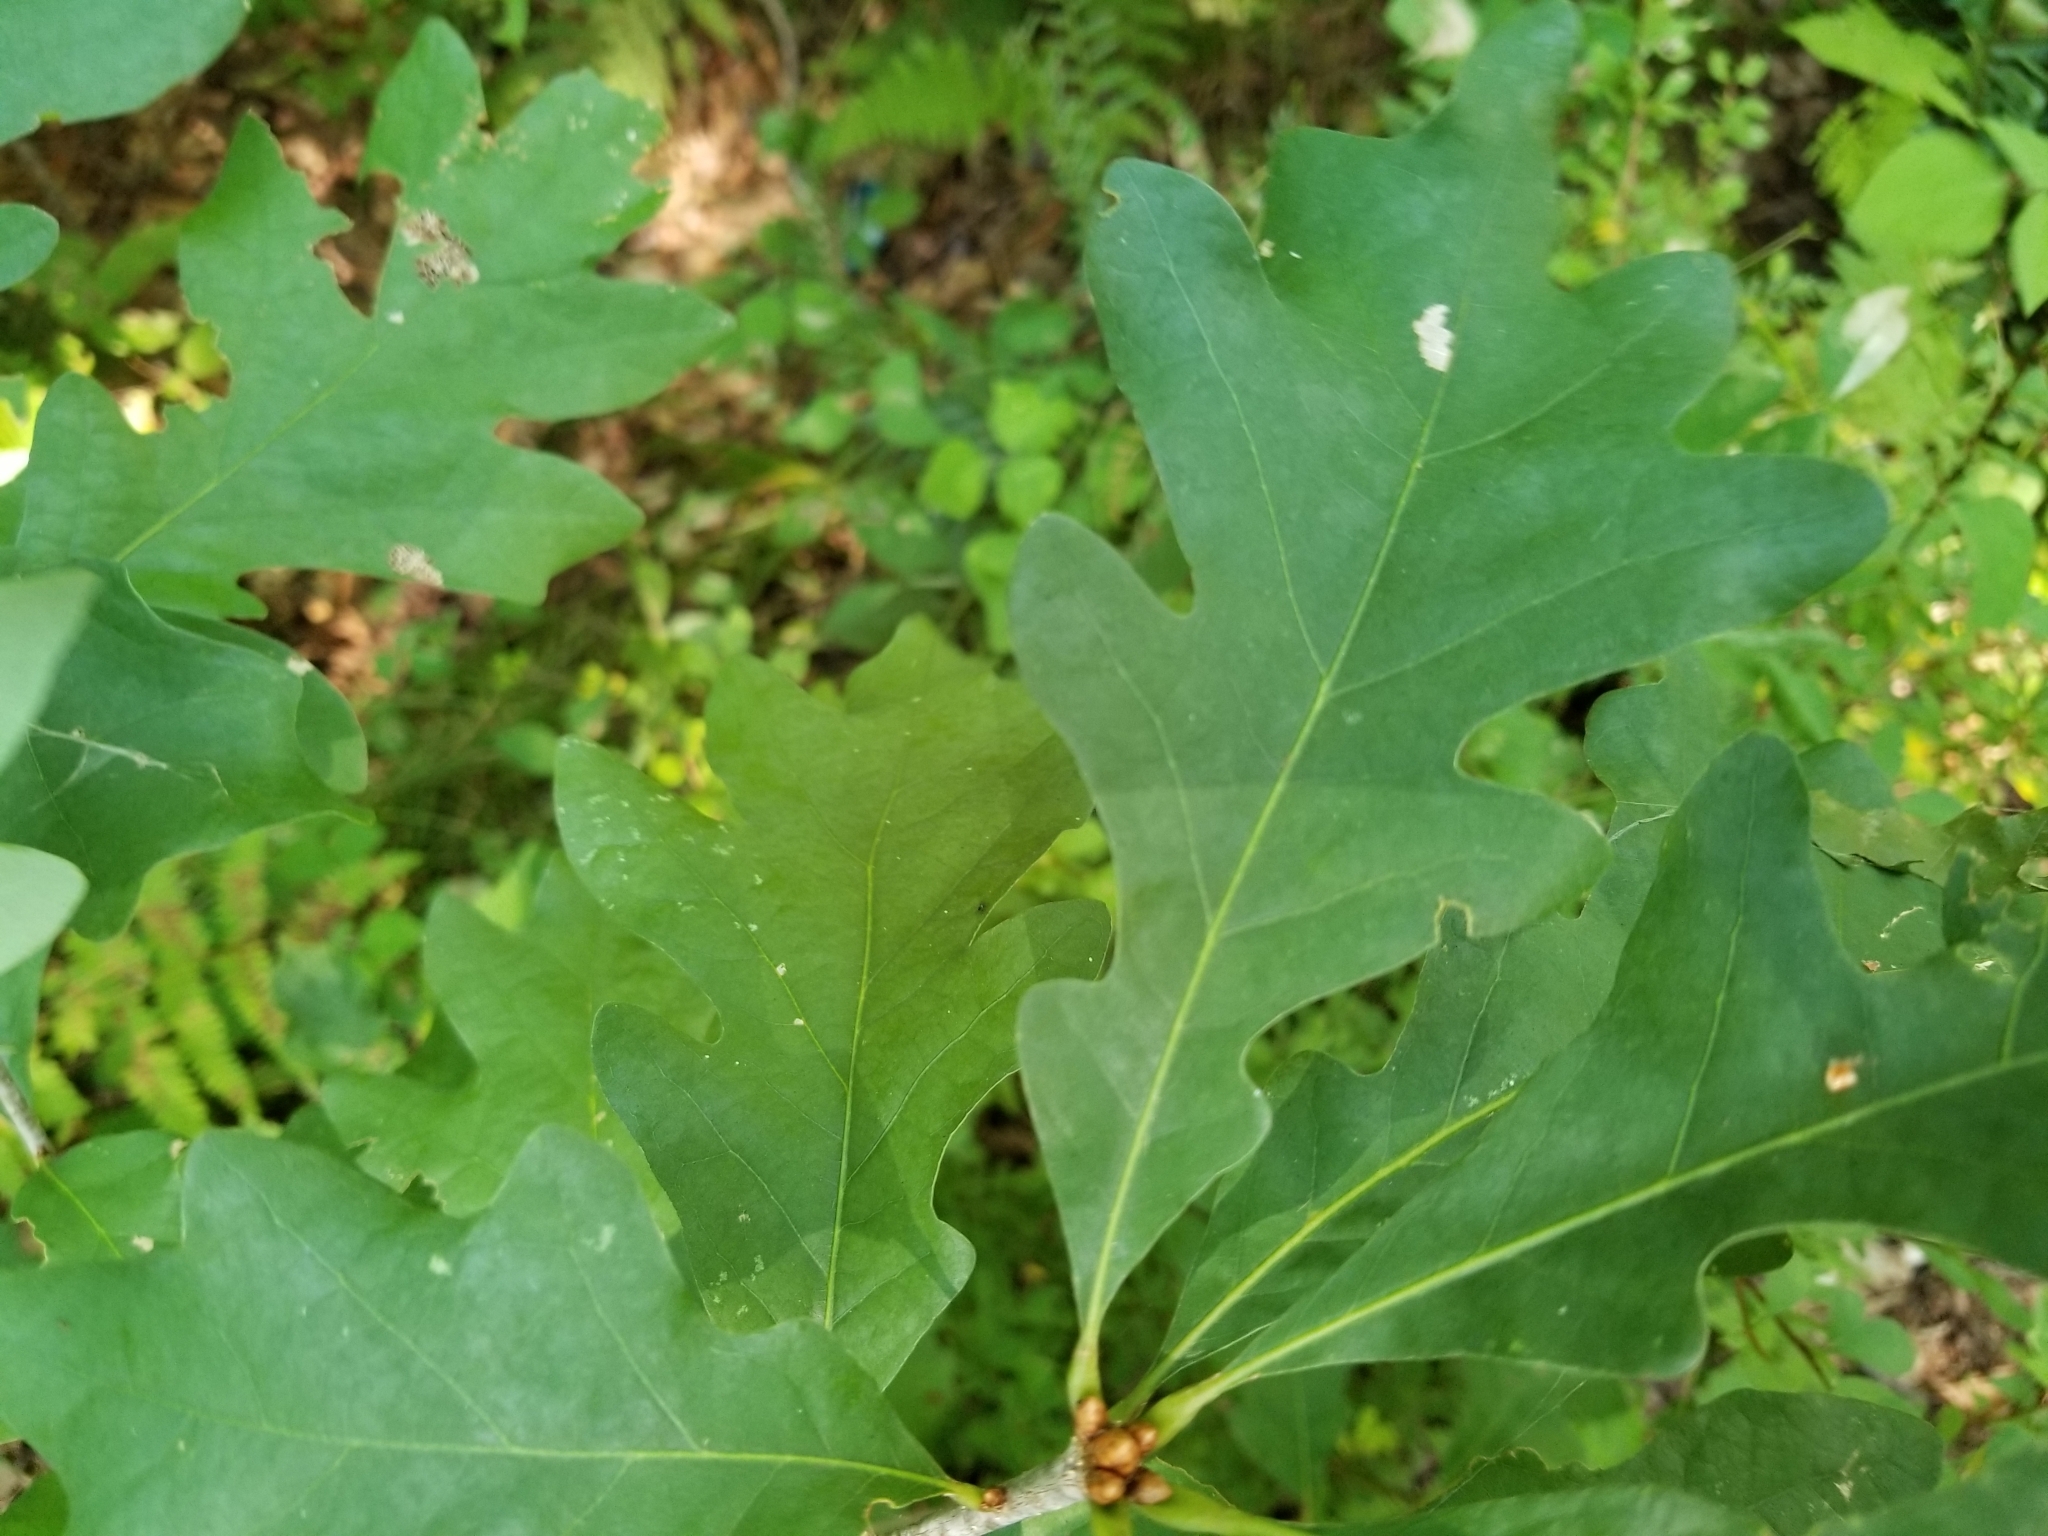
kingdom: Plantae
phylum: Tracheophyta
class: Magnoliopsida
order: Fagales
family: Fagaceae
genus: Quercus
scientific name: Quercus alba
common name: White oak
